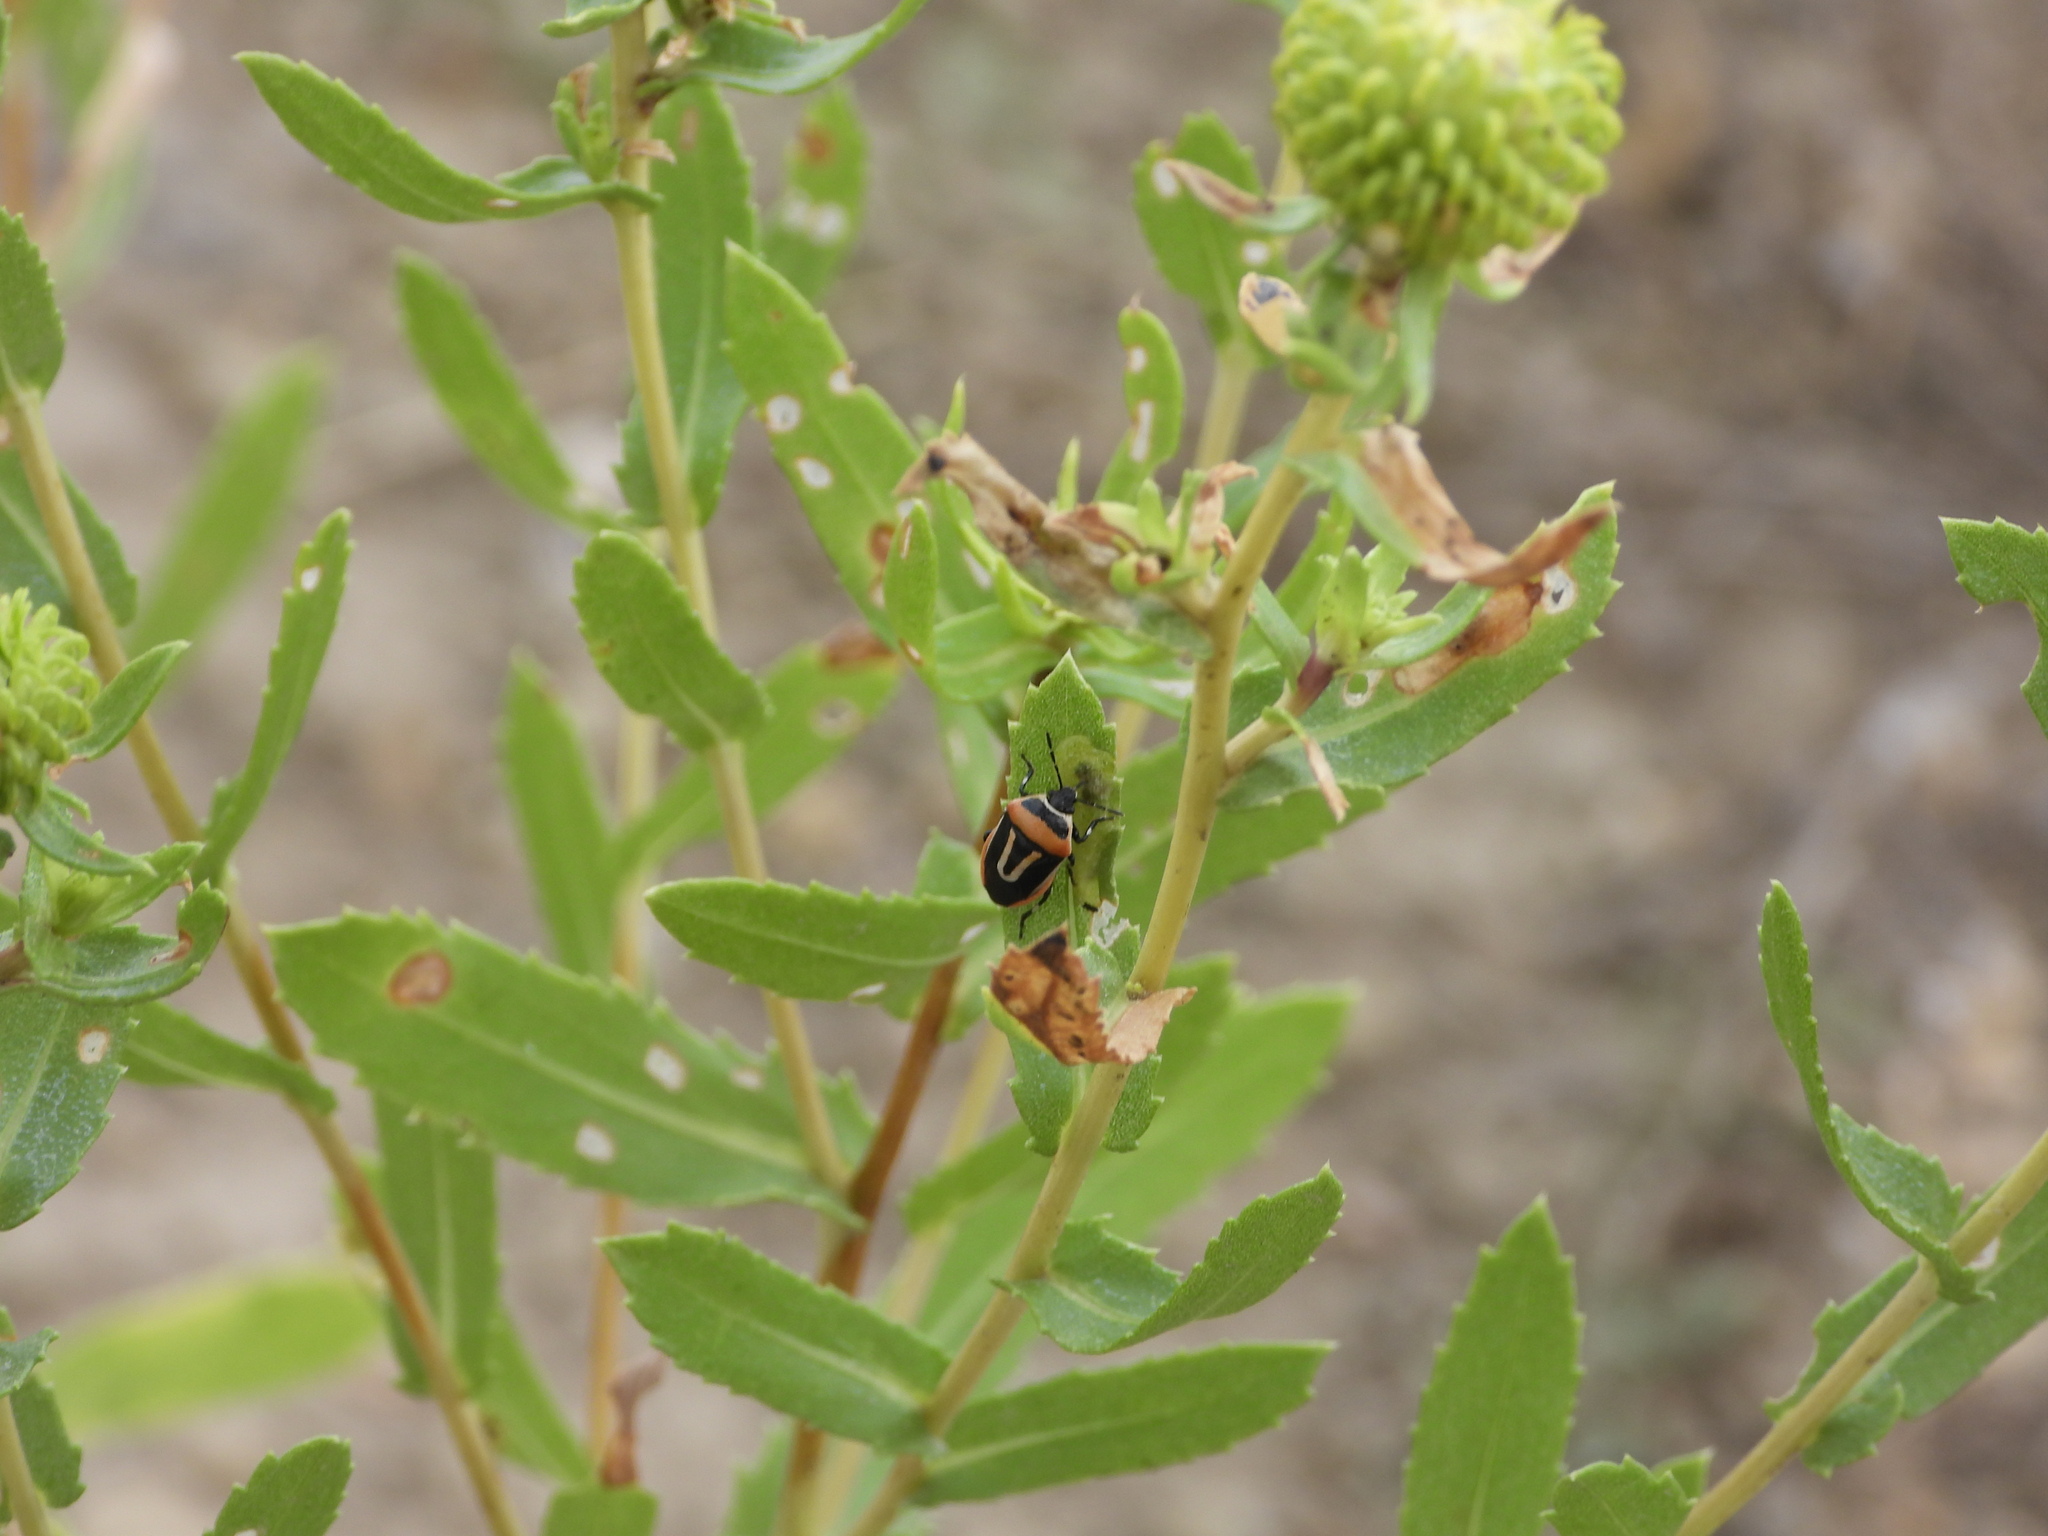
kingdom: Animalia
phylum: Arthropoda
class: Insecta
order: Hemiptera
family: Pentatomidae
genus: Perillus
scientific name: Perillus exaptus
